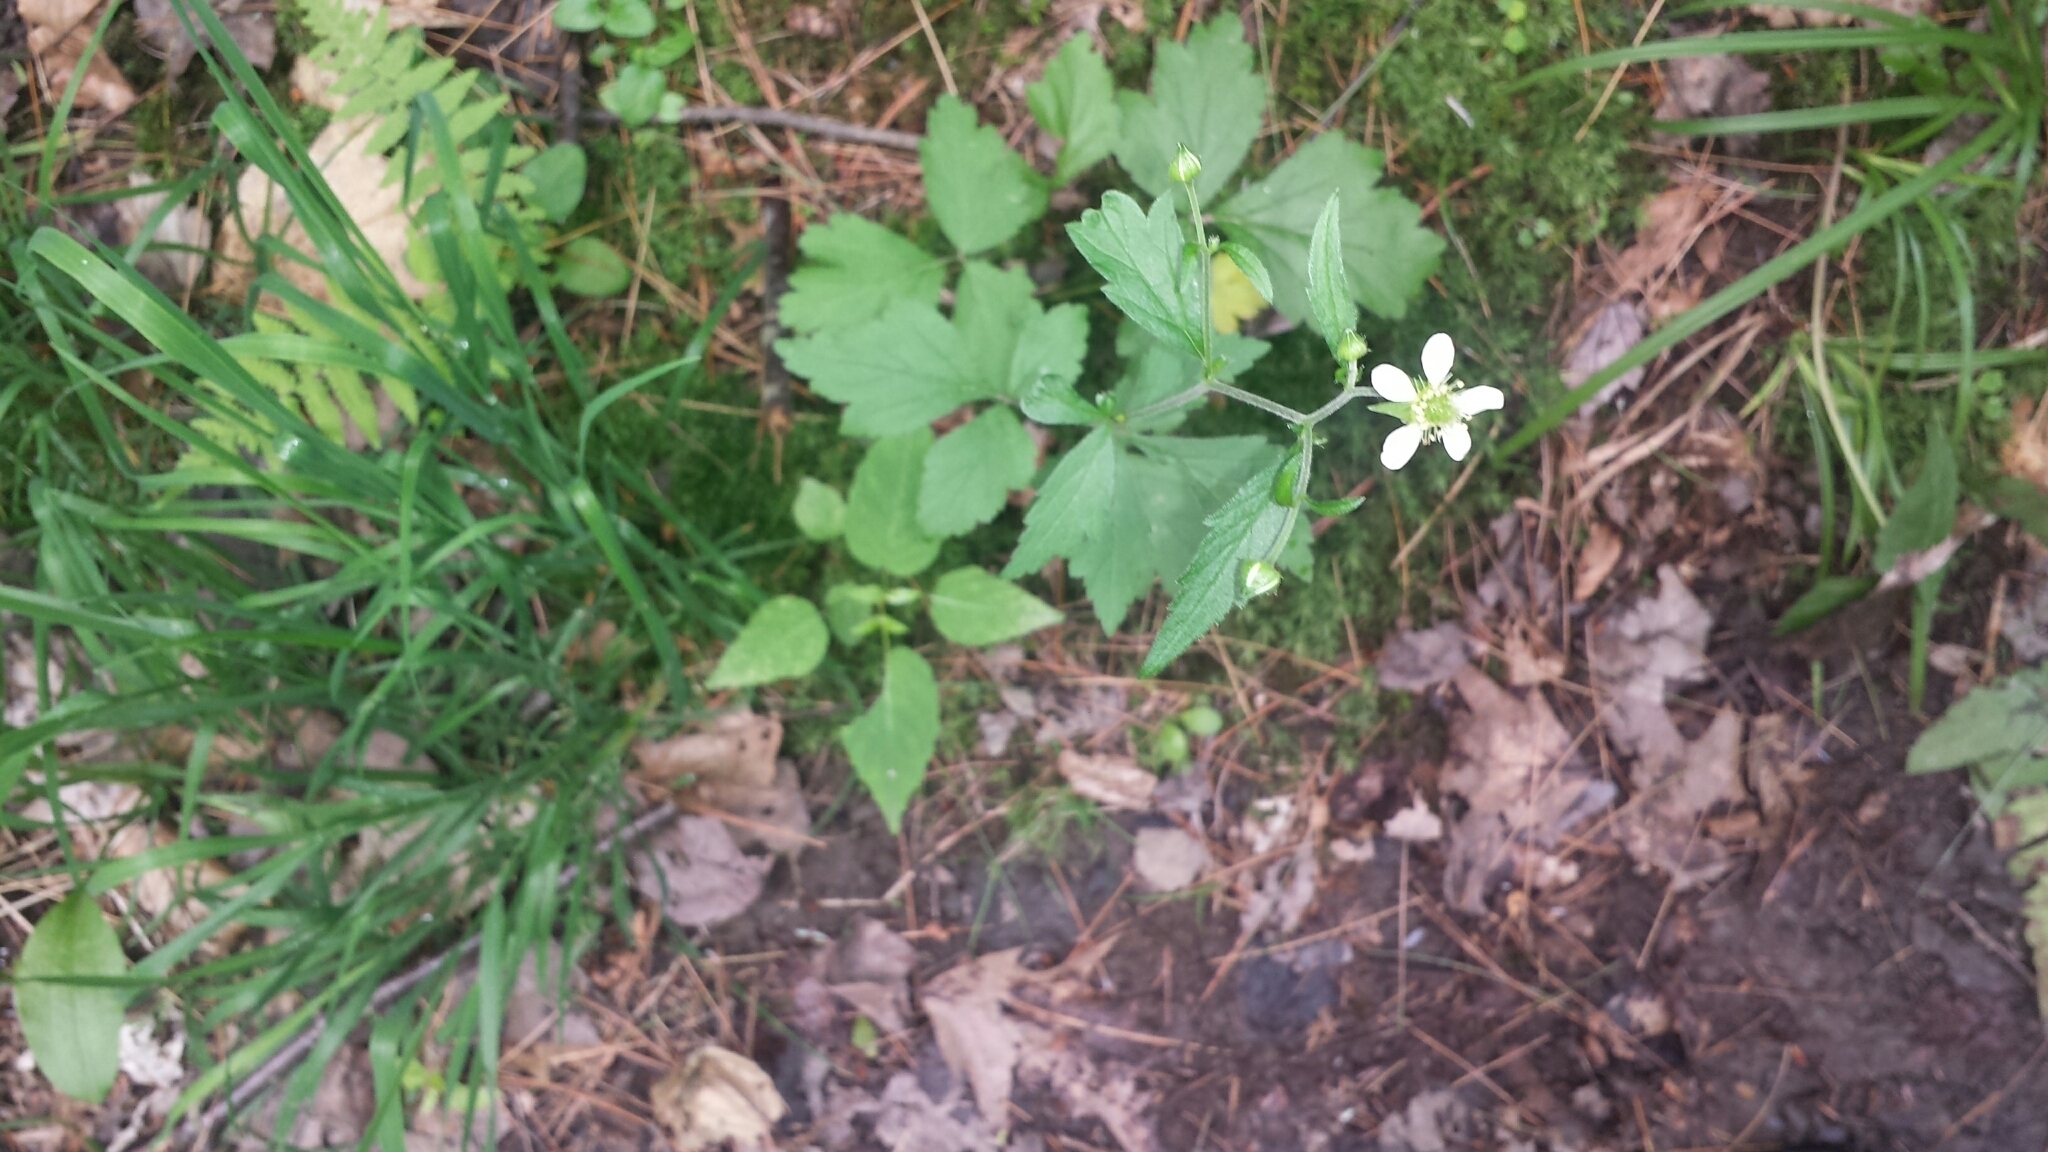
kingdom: Plantae
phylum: Tracheophyta
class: Magnoliopsida
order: Rosales
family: Rosaceae
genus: Geum
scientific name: Geum canadense
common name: White avens
